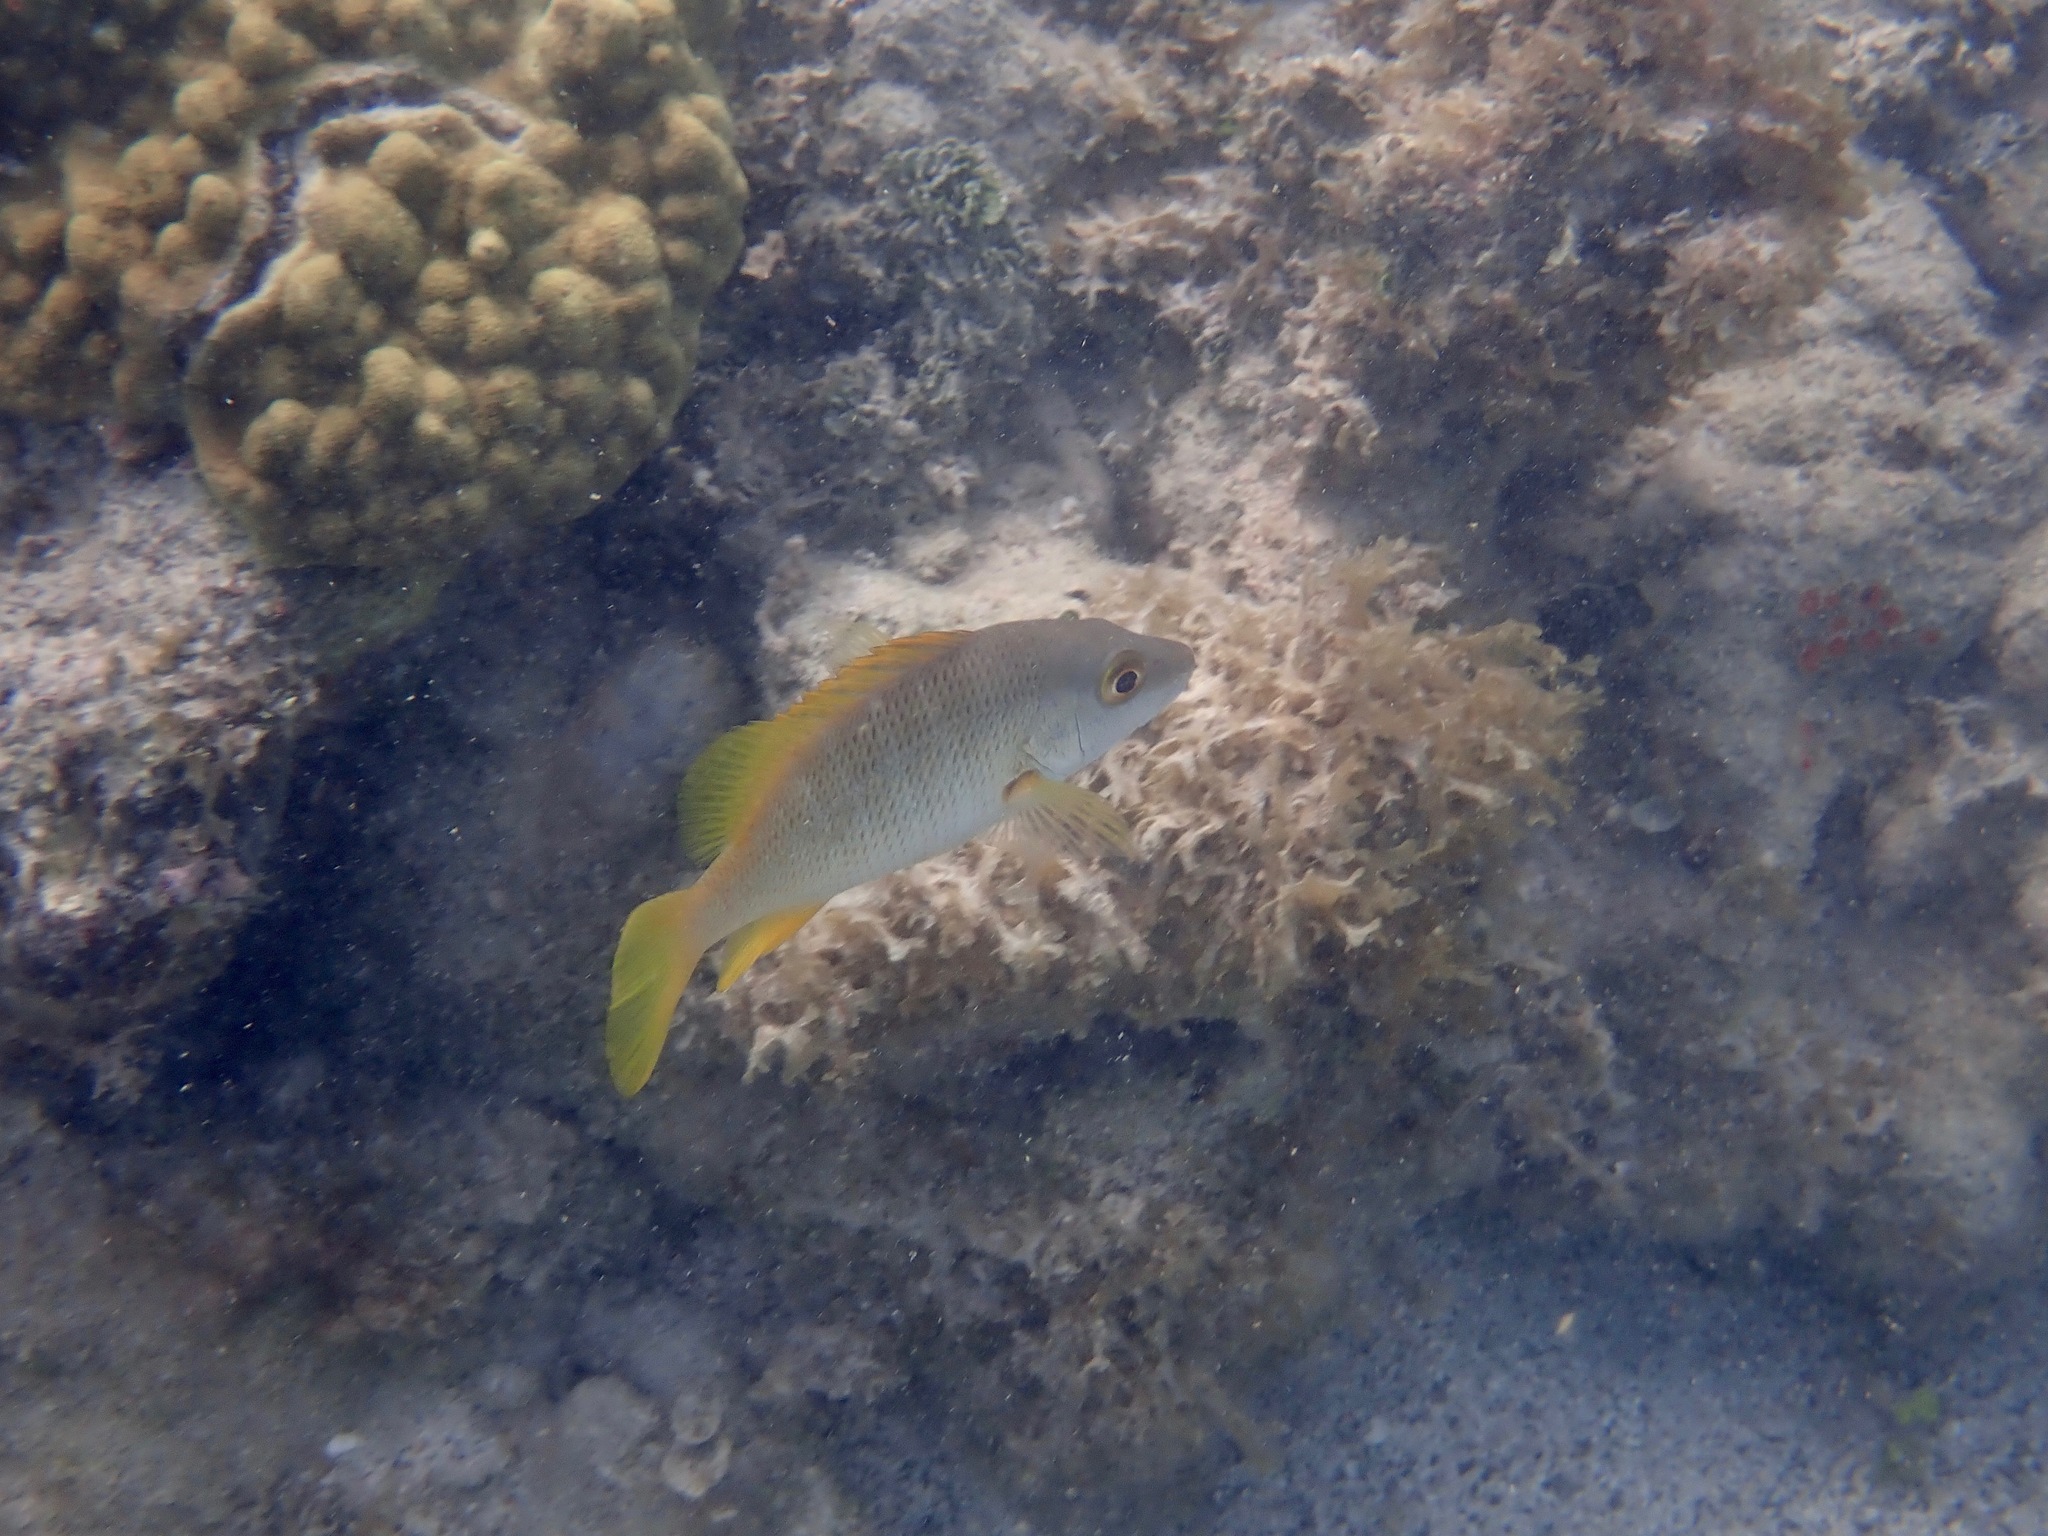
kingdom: Animalia
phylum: Chordata
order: Perciformes
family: Lutjanidae
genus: Lutjanus
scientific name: Lutjanus apodus
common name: Schoolmaster
